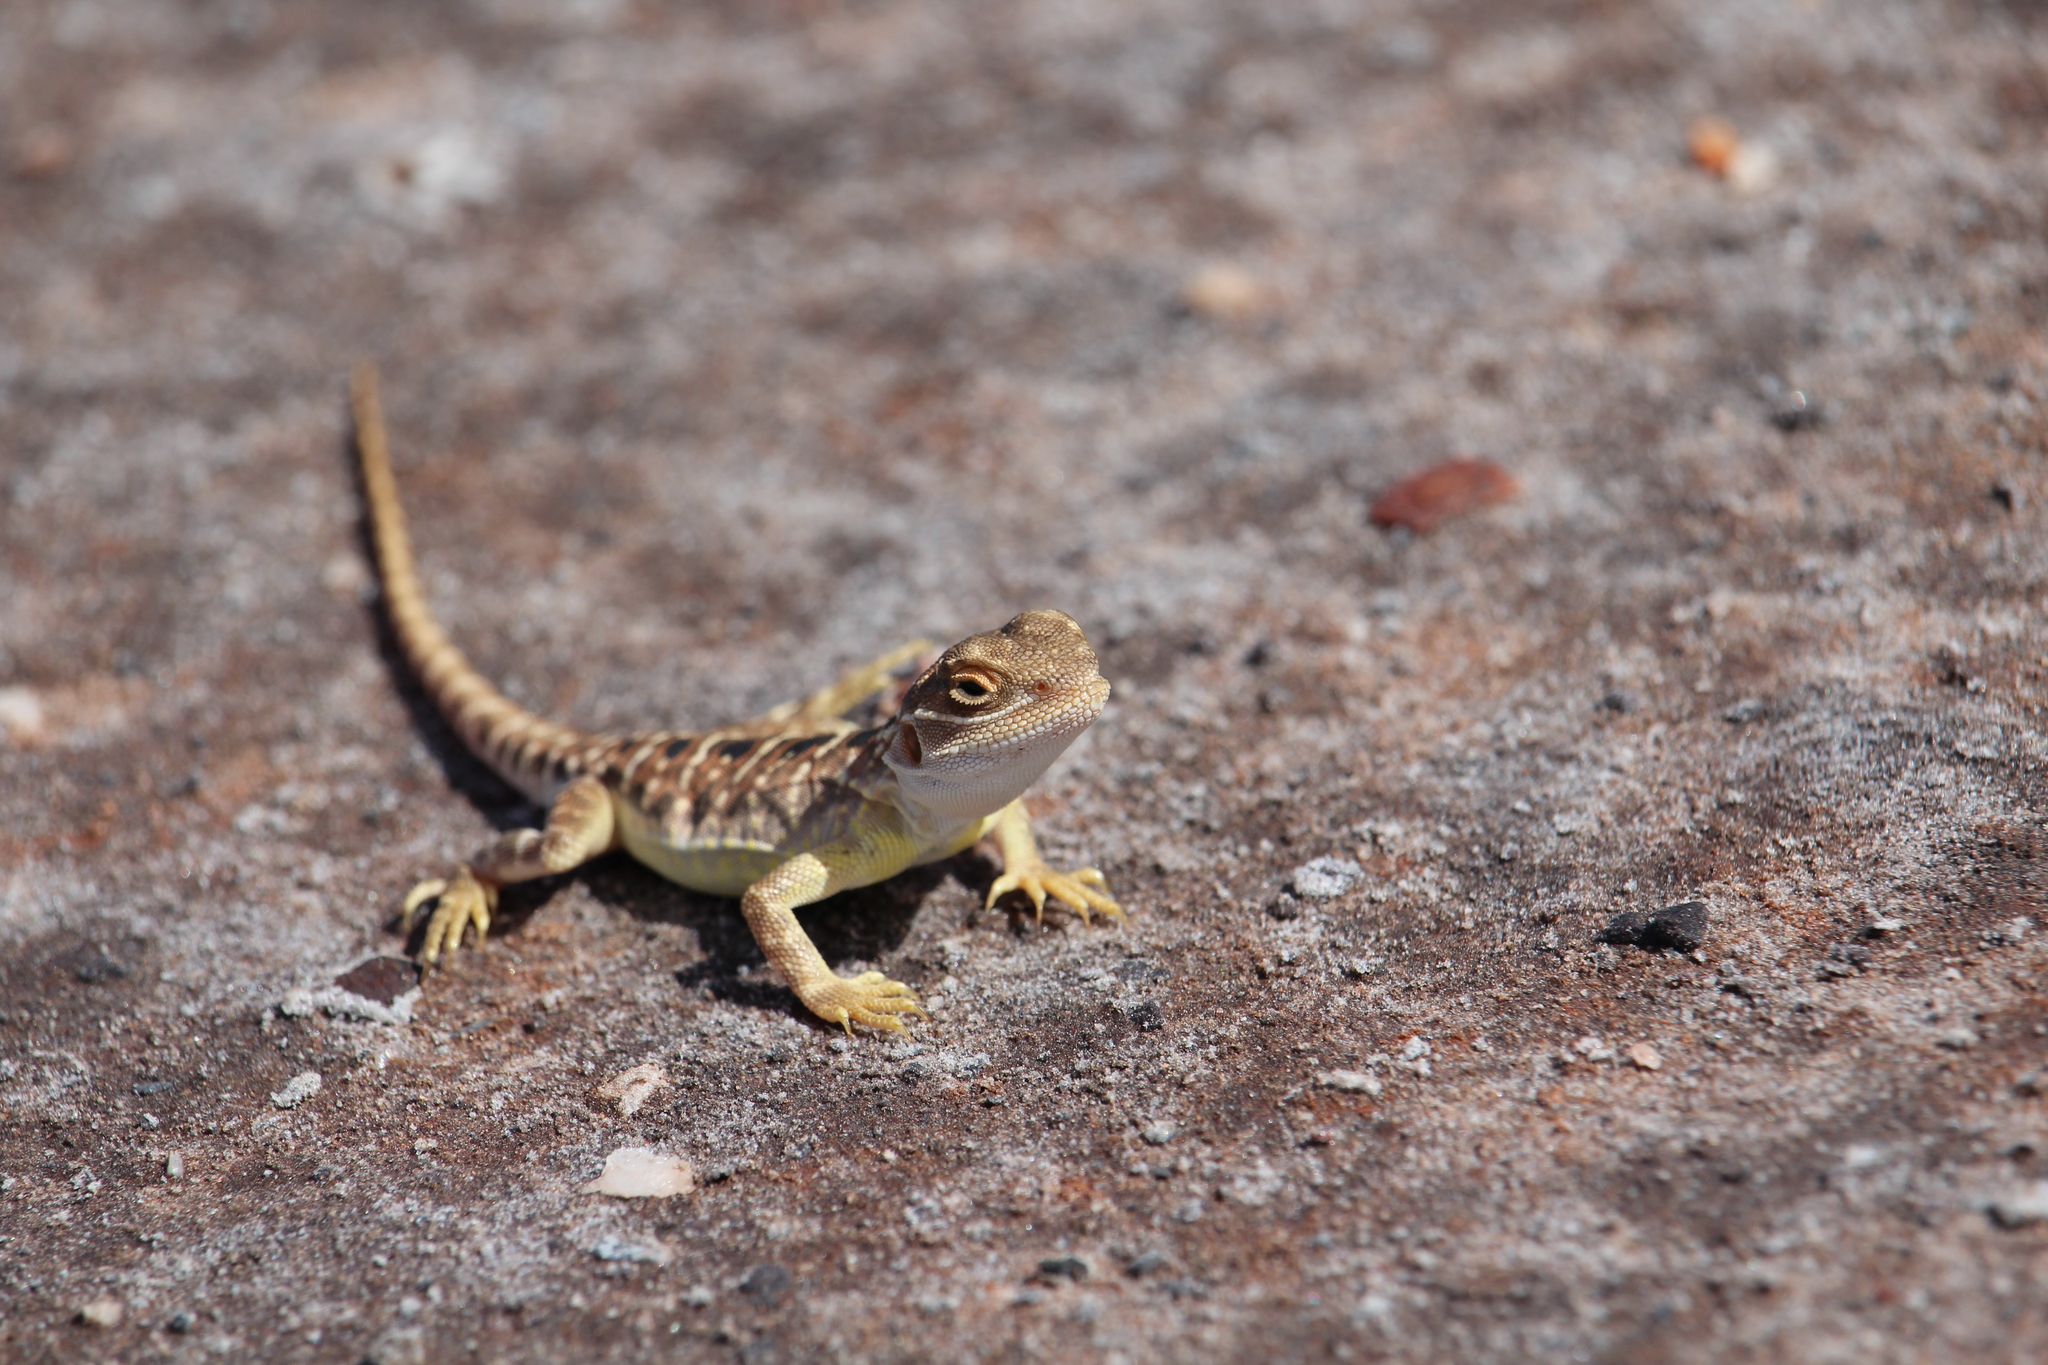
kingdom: Animalia
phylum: Chordata
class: Squamata
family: Agamidae
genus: Ctenophorus
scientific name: Ctenophorus salinarum
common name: Saltpan ground-dragon
